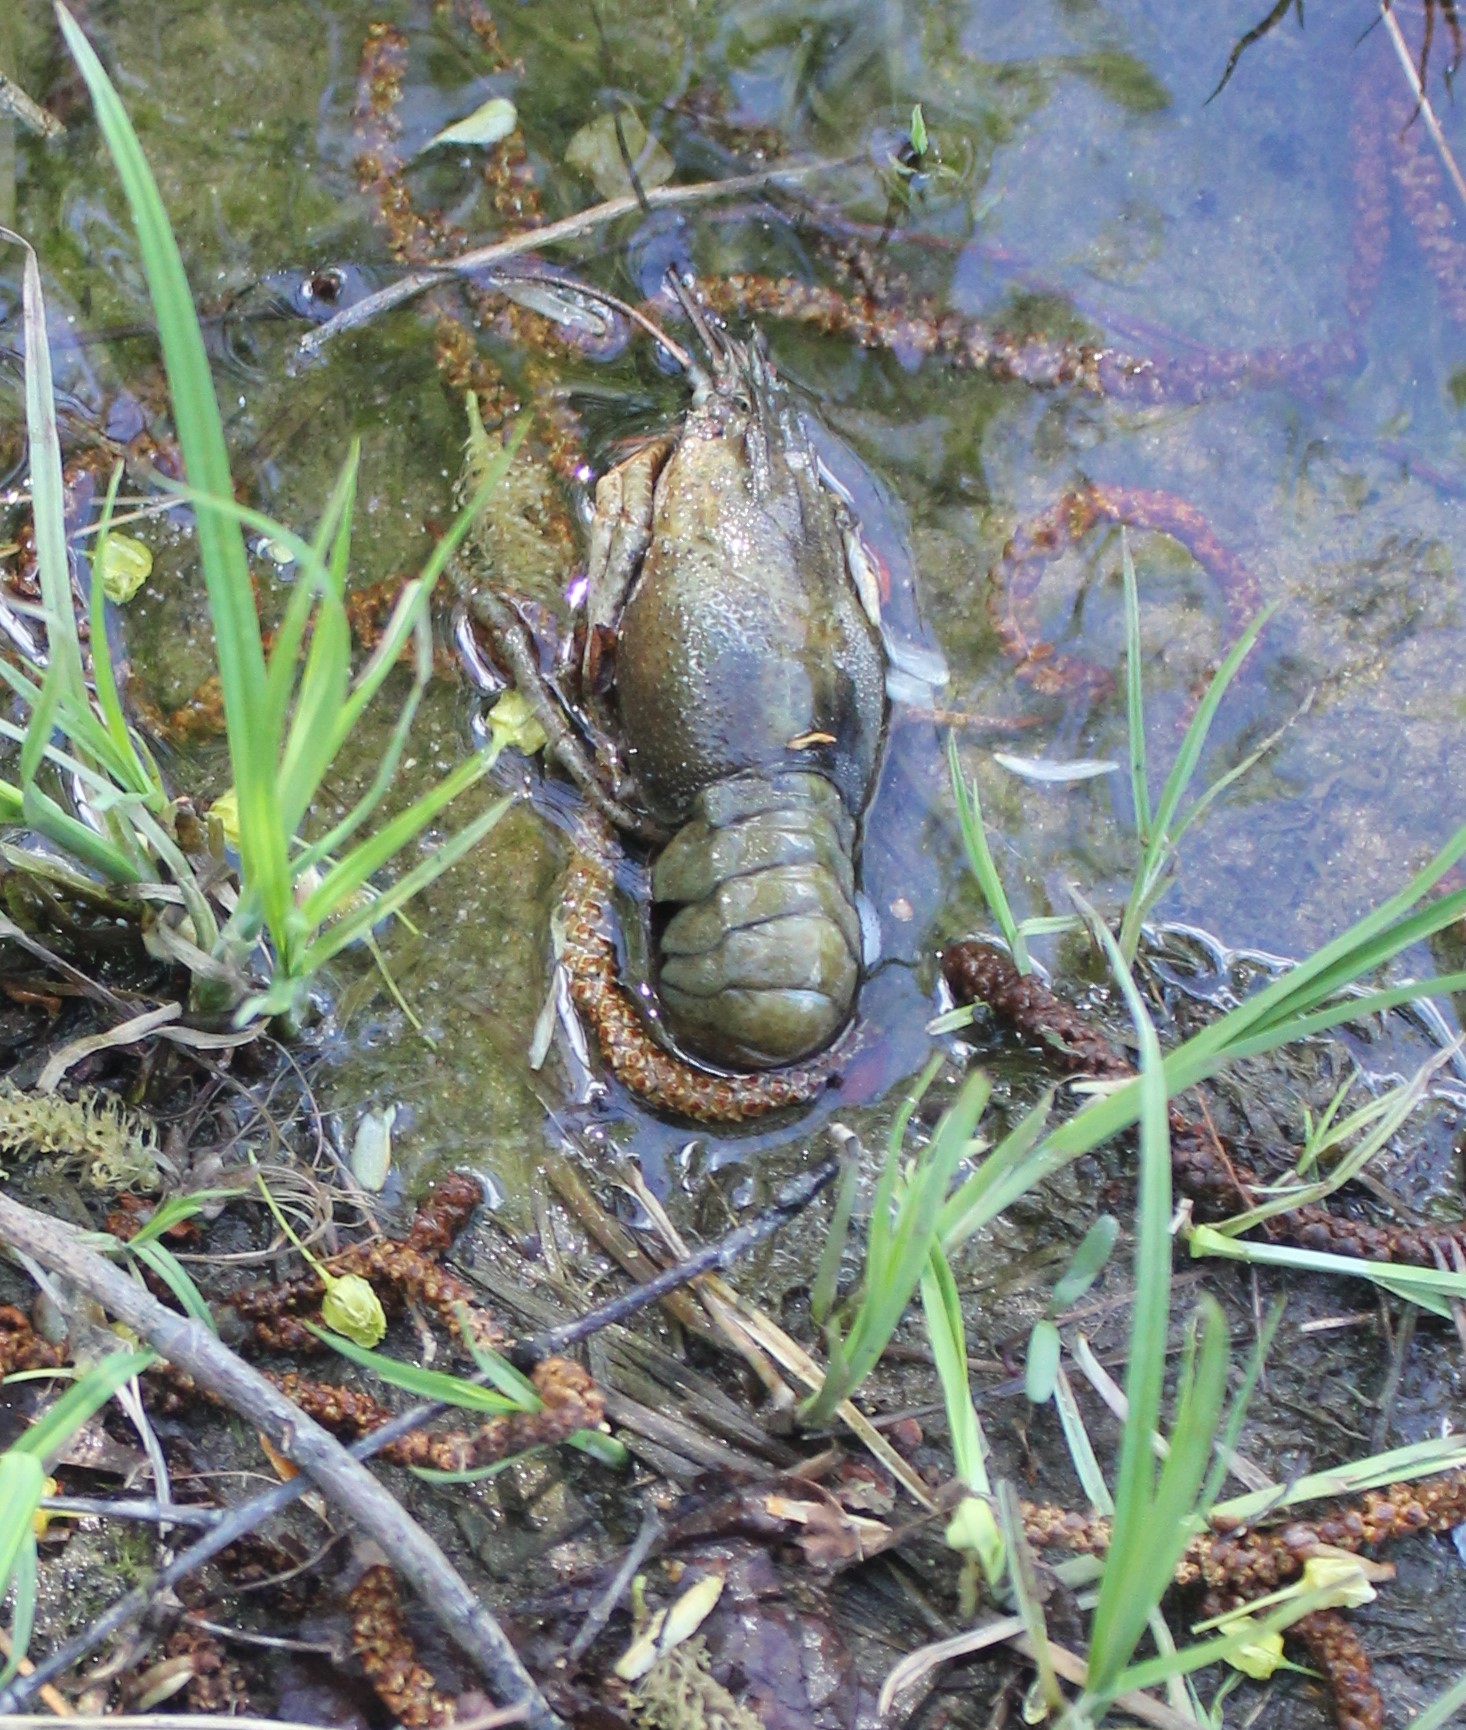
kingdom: Animalia
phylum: Arthropoda
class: Malacostraca
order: Decapoda
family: Astacidae
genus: Pontastacus
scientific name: Pontastacus leptodactylus
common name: Danube crayfish
